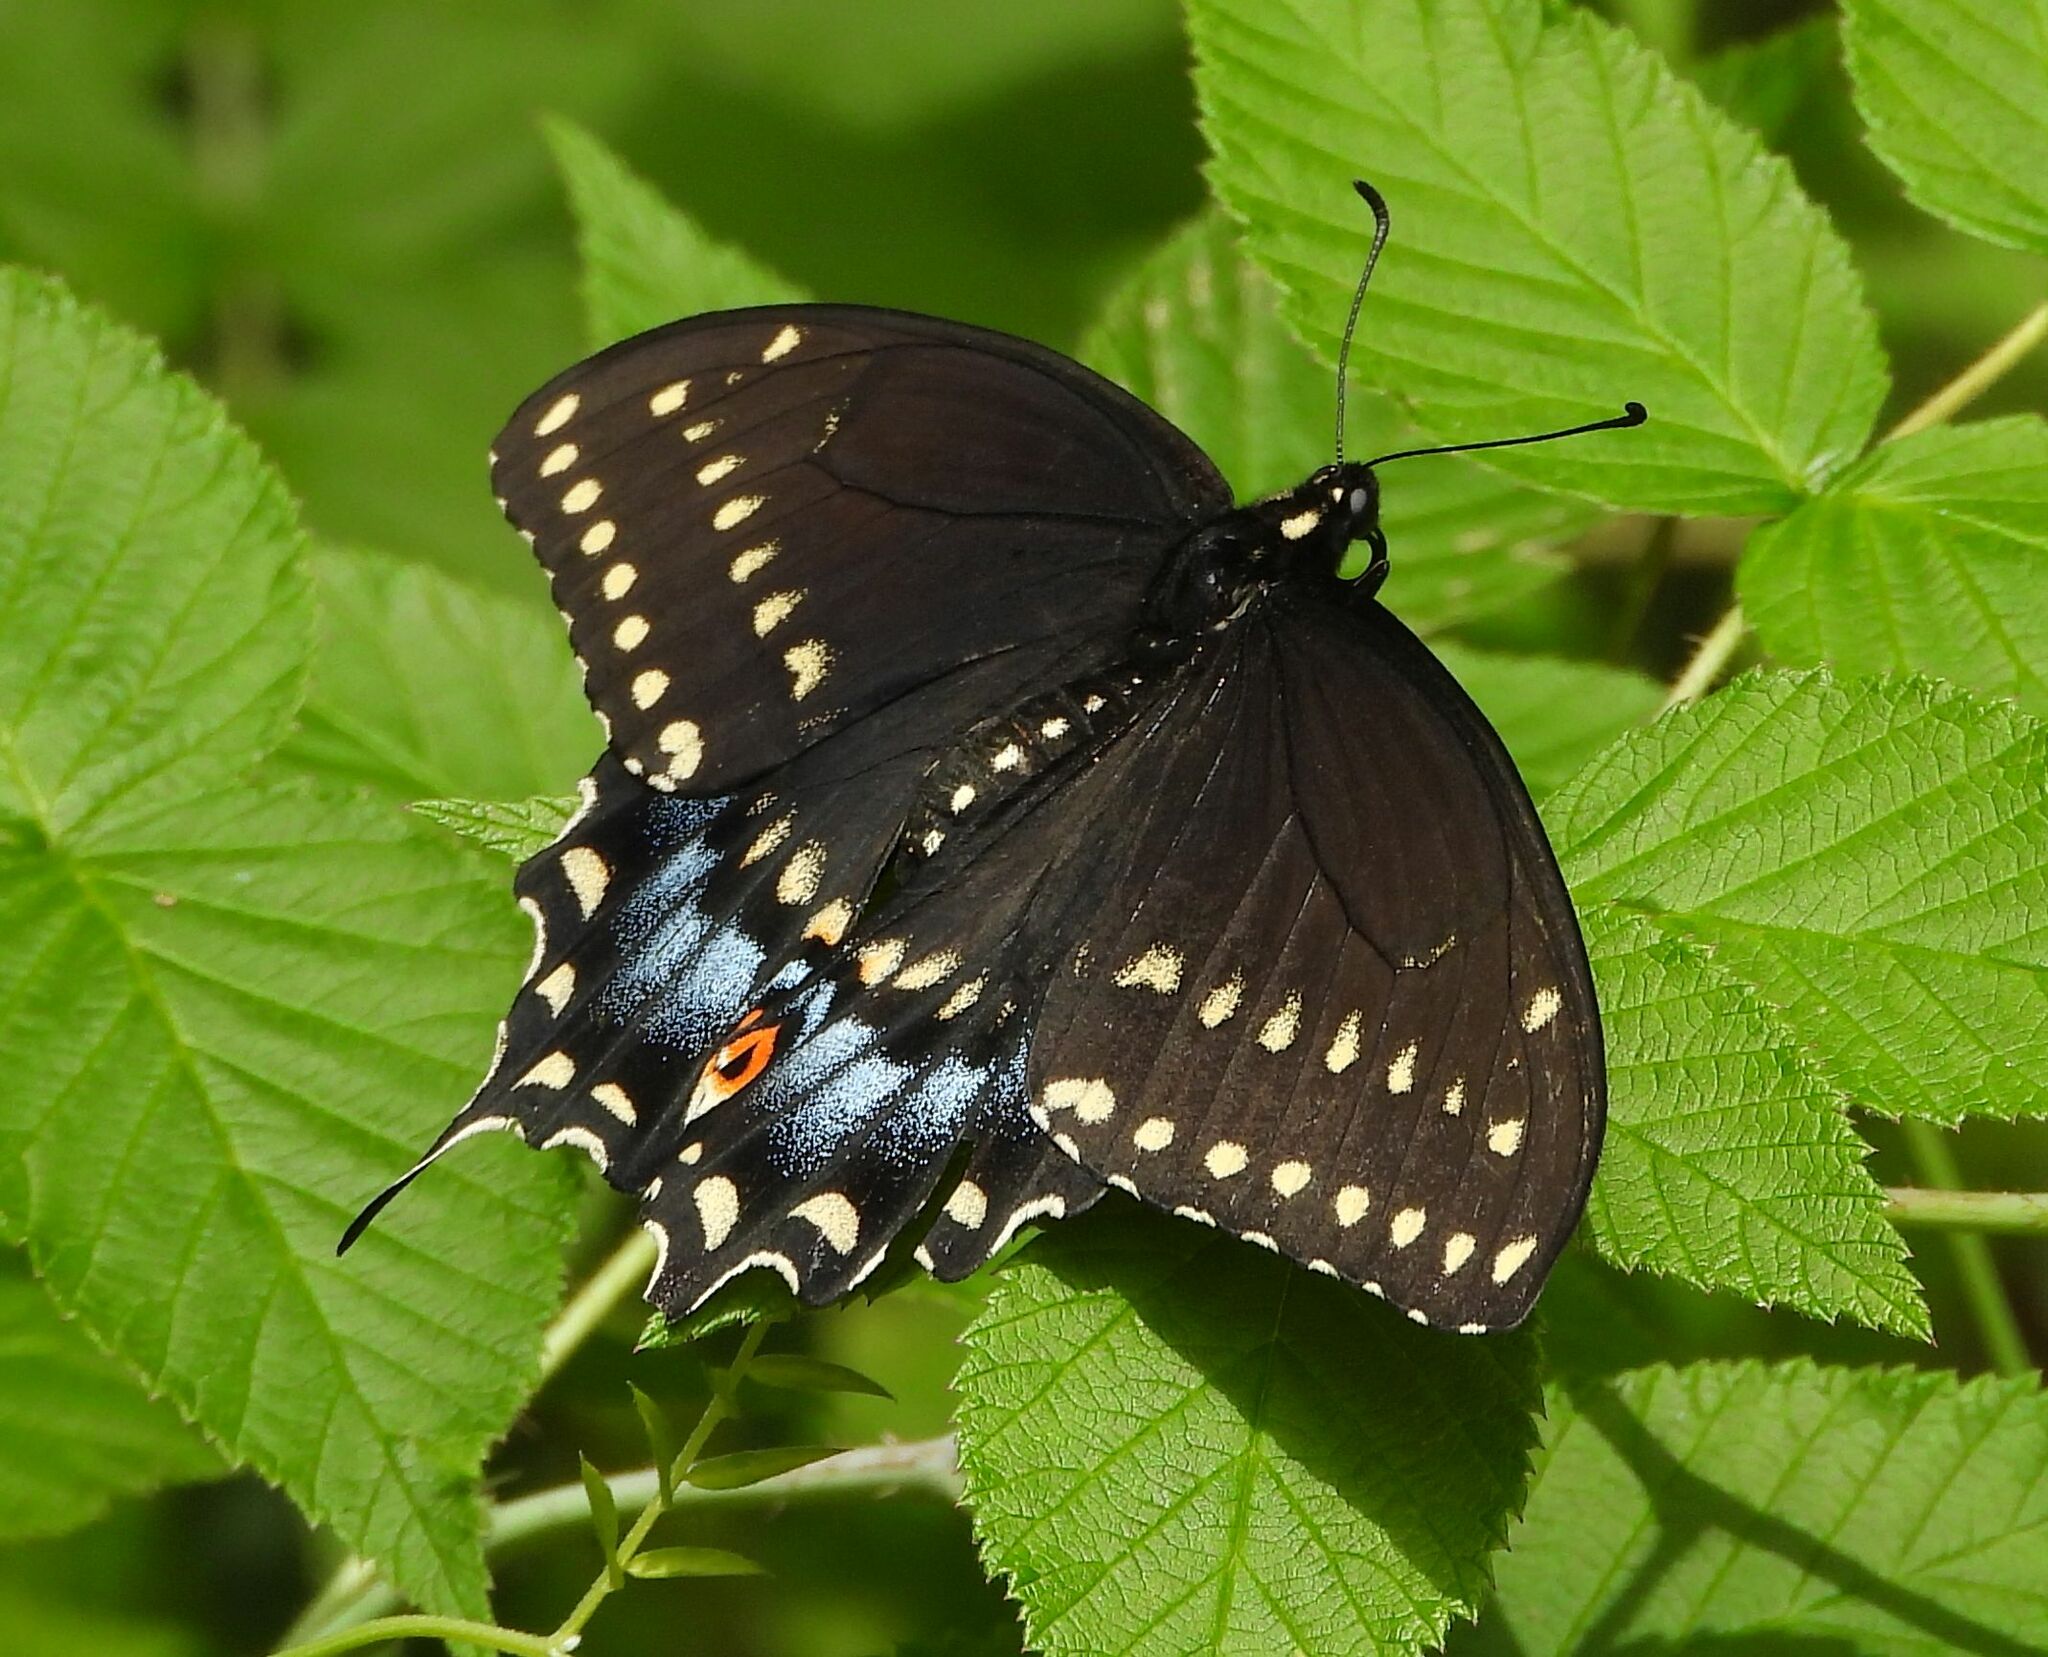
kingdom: Animalia
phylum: Arthropoda
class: Insecta
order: Lepidoptera
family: Papilionidae
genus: Papilio
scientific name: Papilio polyxenes
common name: Black swallowtail
